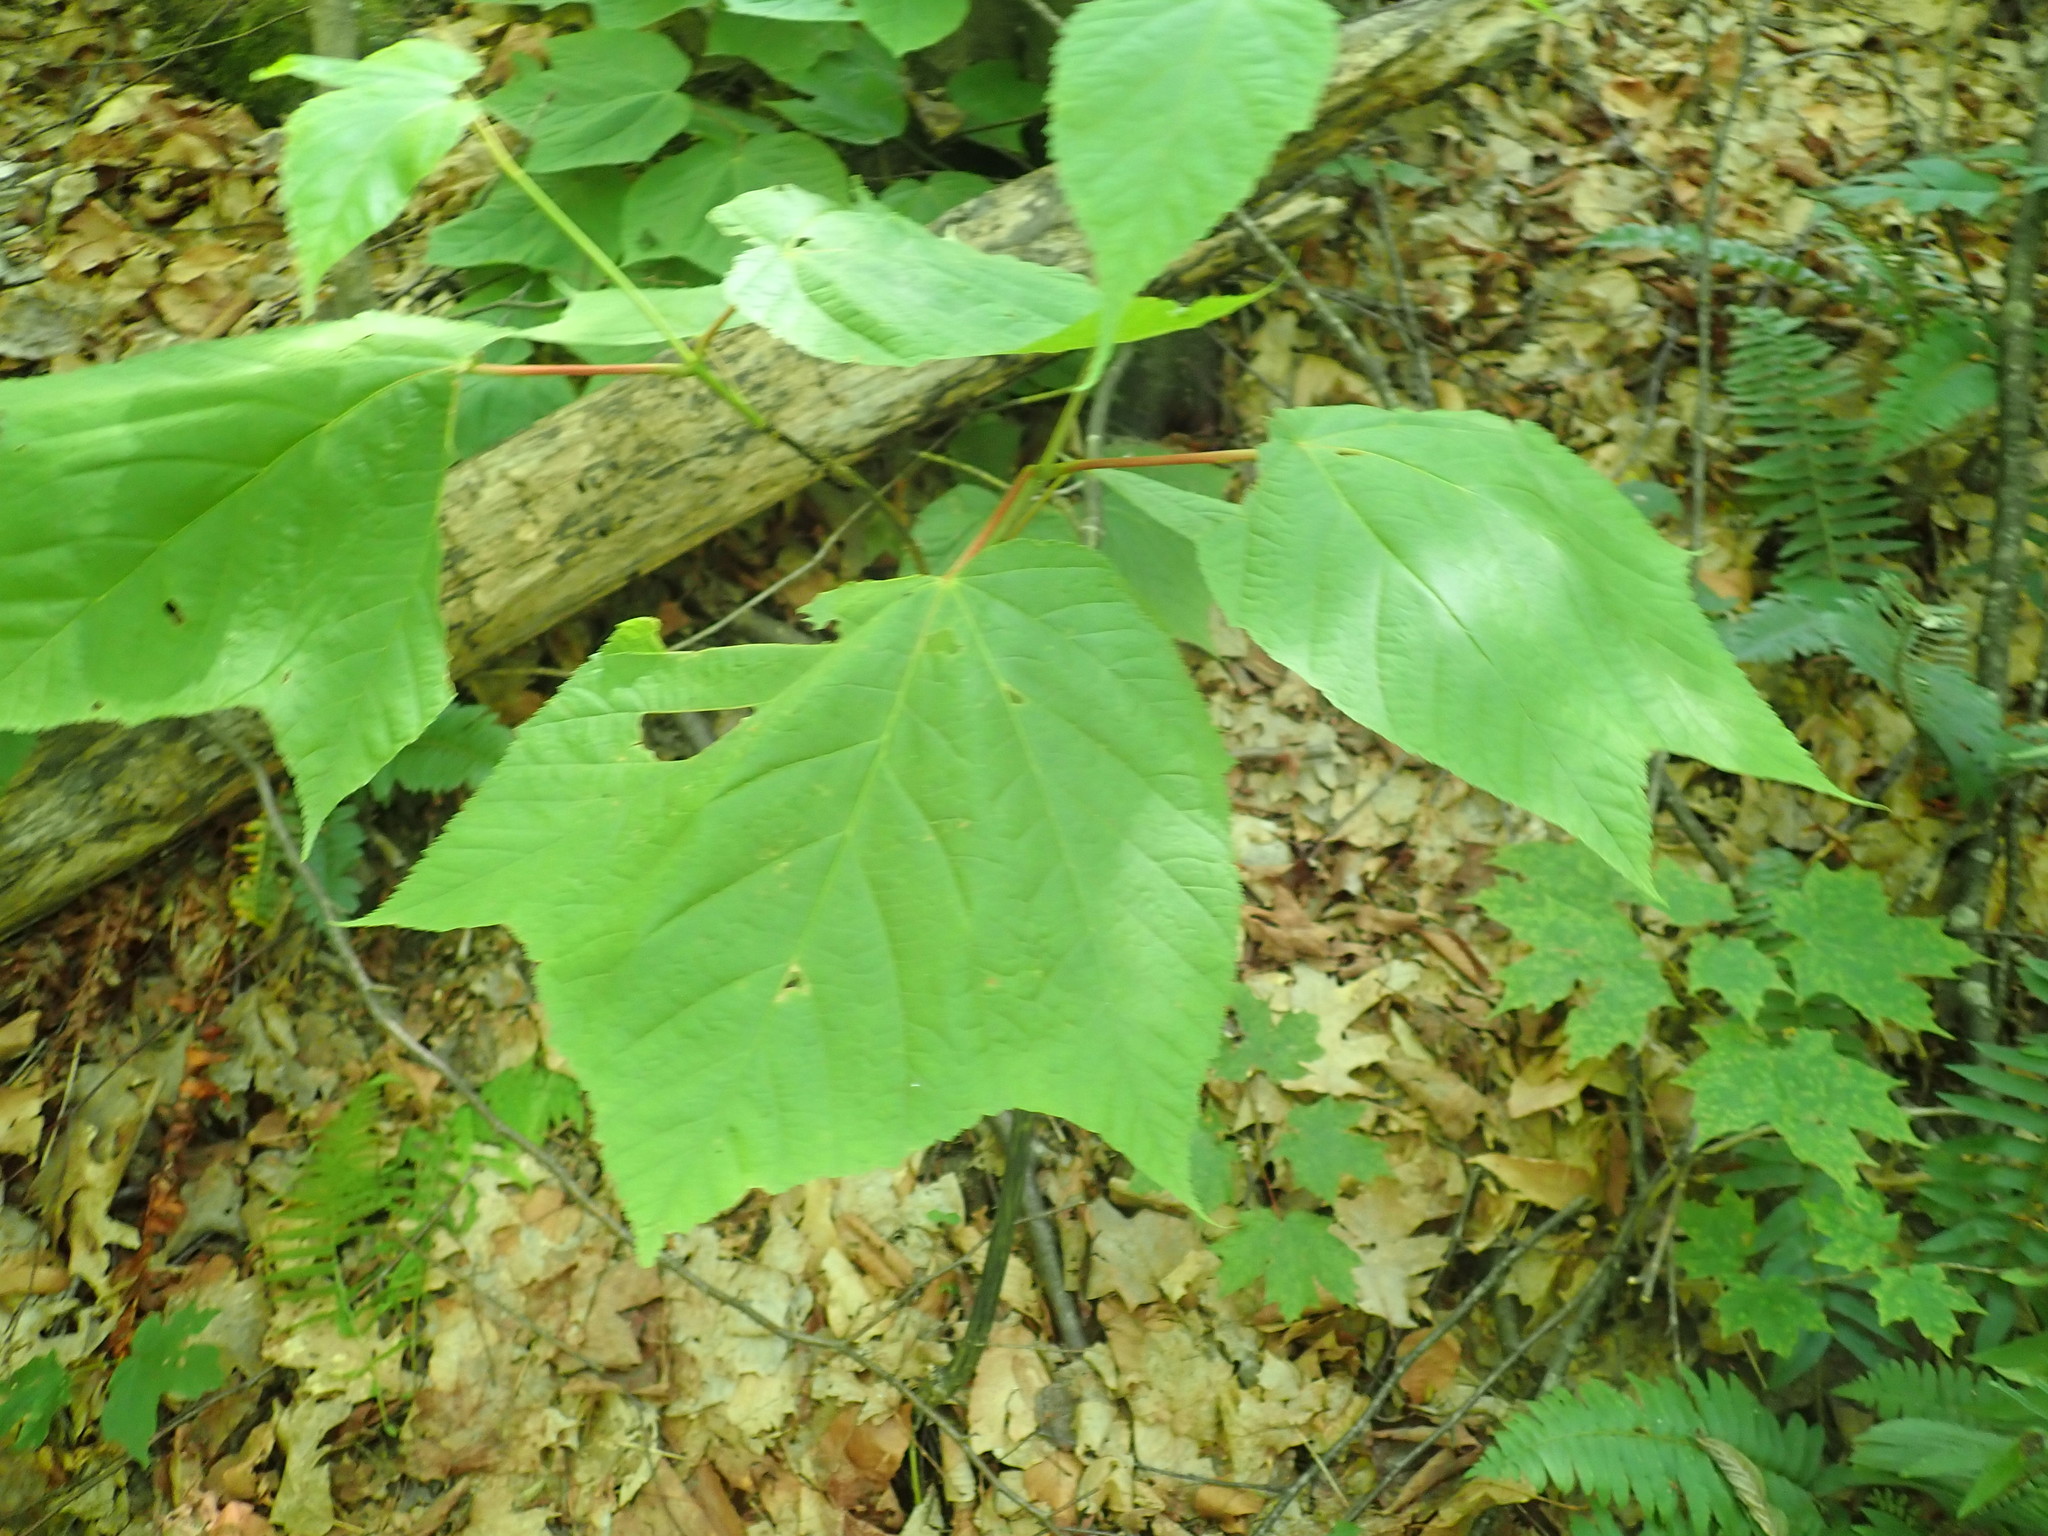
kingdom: Plantae
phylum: Tracheophyta
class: Magnoliopsida
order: Sapindales
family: Sapindaceae
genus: Acer
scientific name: Acer pensylvanicum
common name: Moosewood
